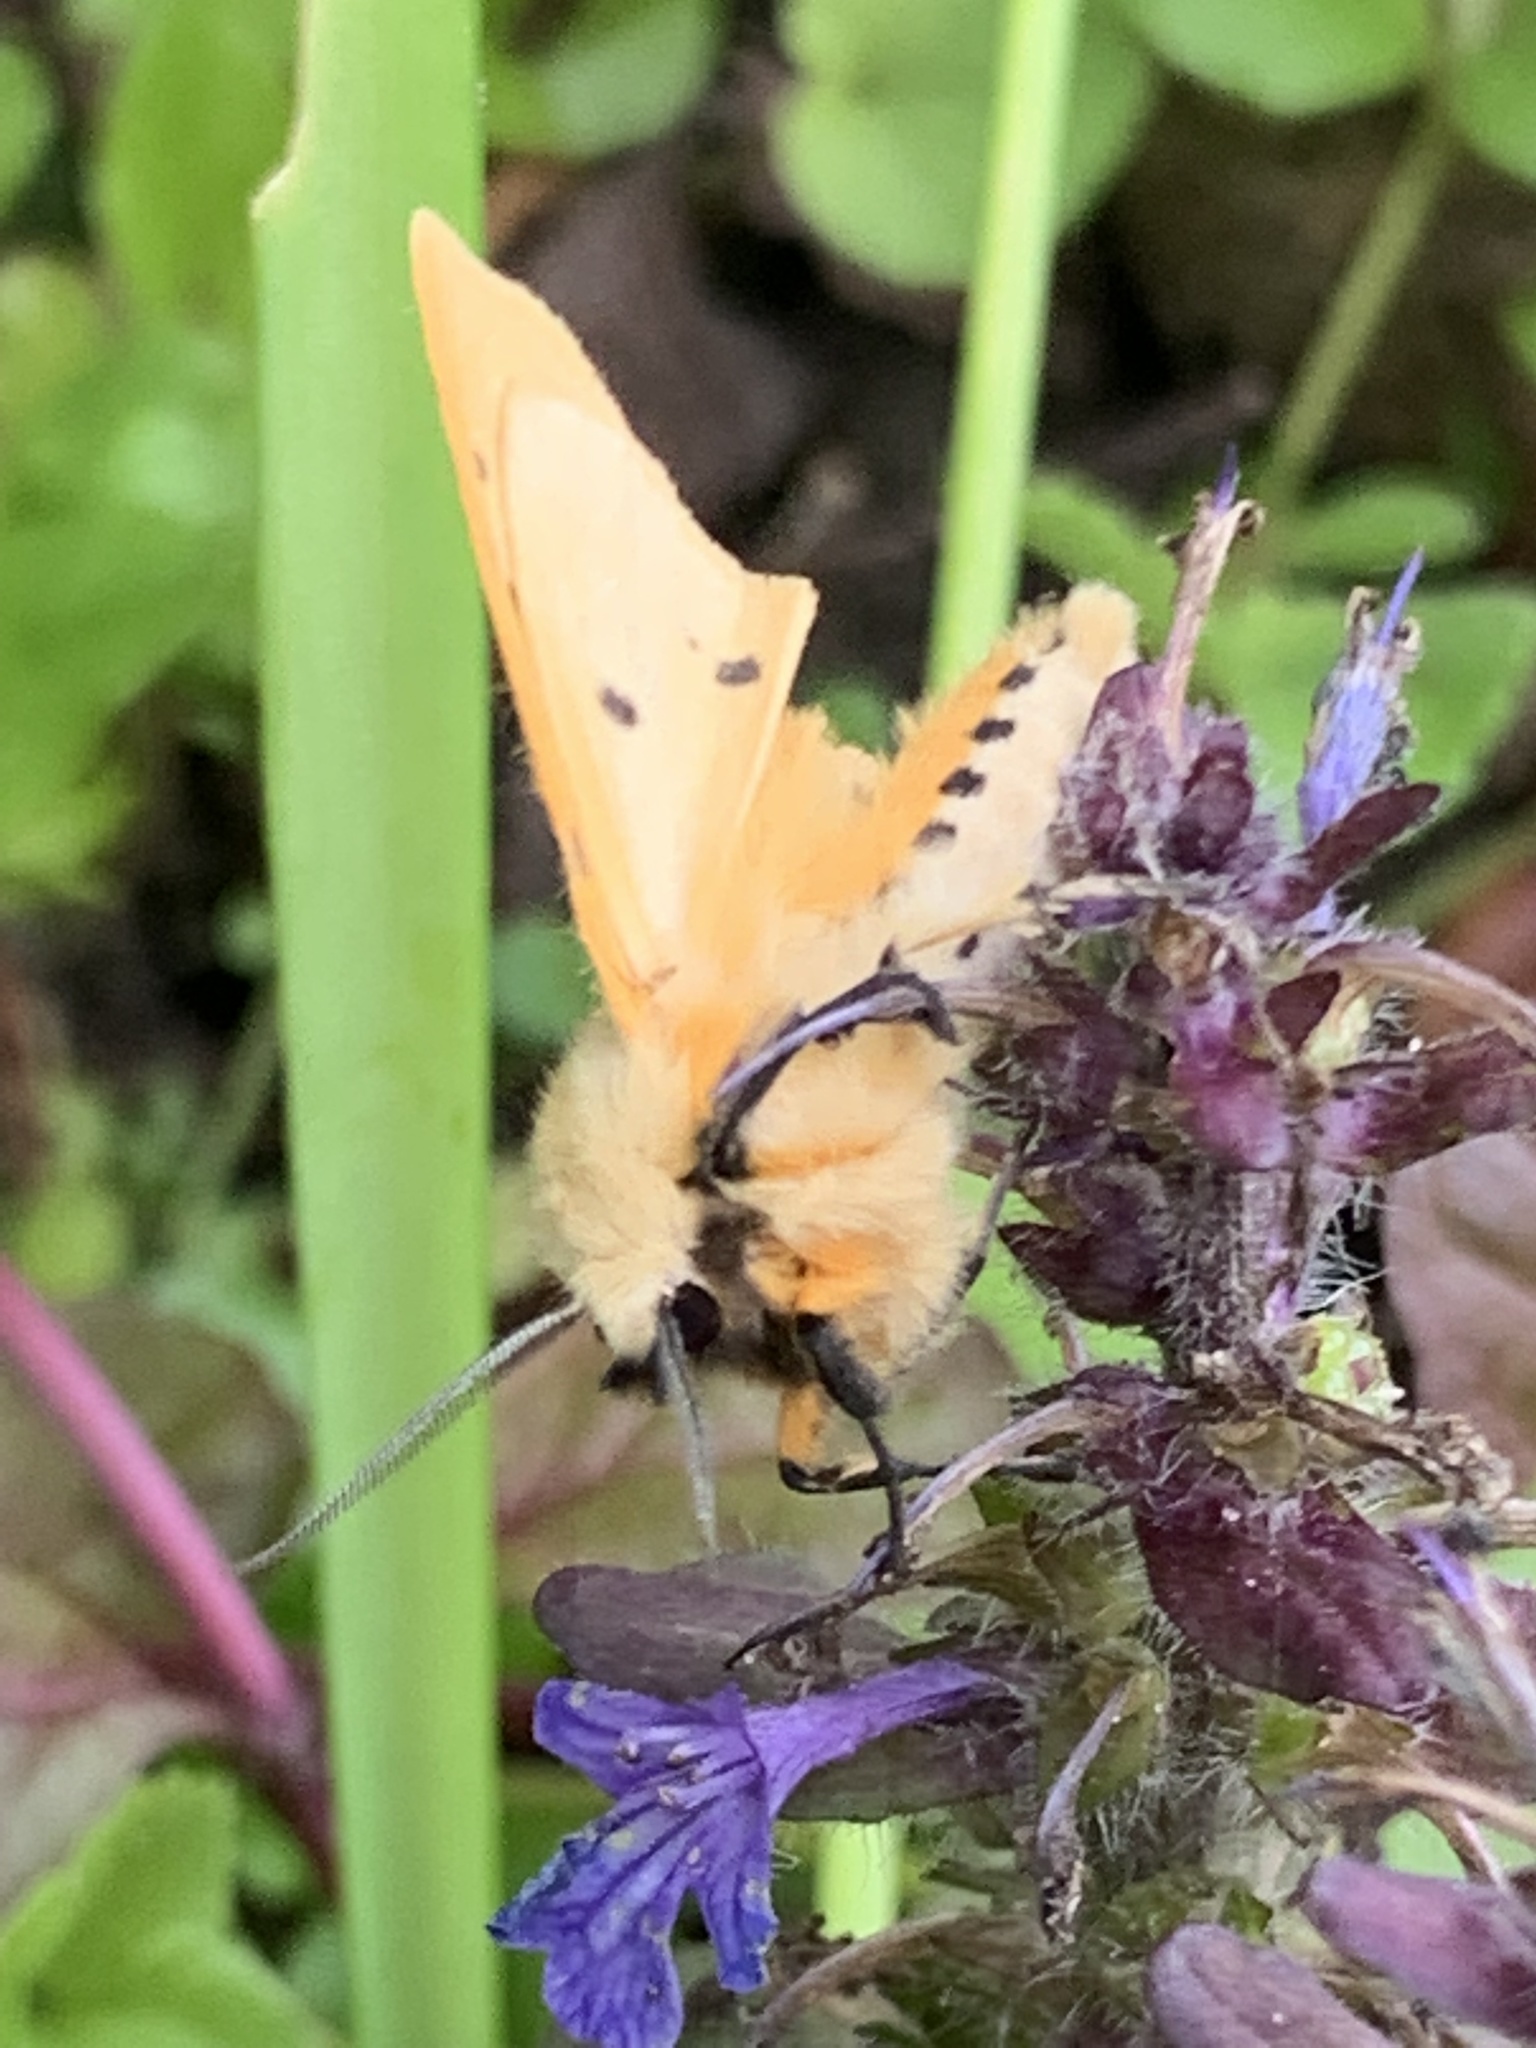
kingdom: Animalia
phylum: Arthropoda
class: Insecta
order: Lepidoptera
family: Erebidae
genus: Spilarctia
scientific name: Spilarctia lutea
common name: Buff ermine
